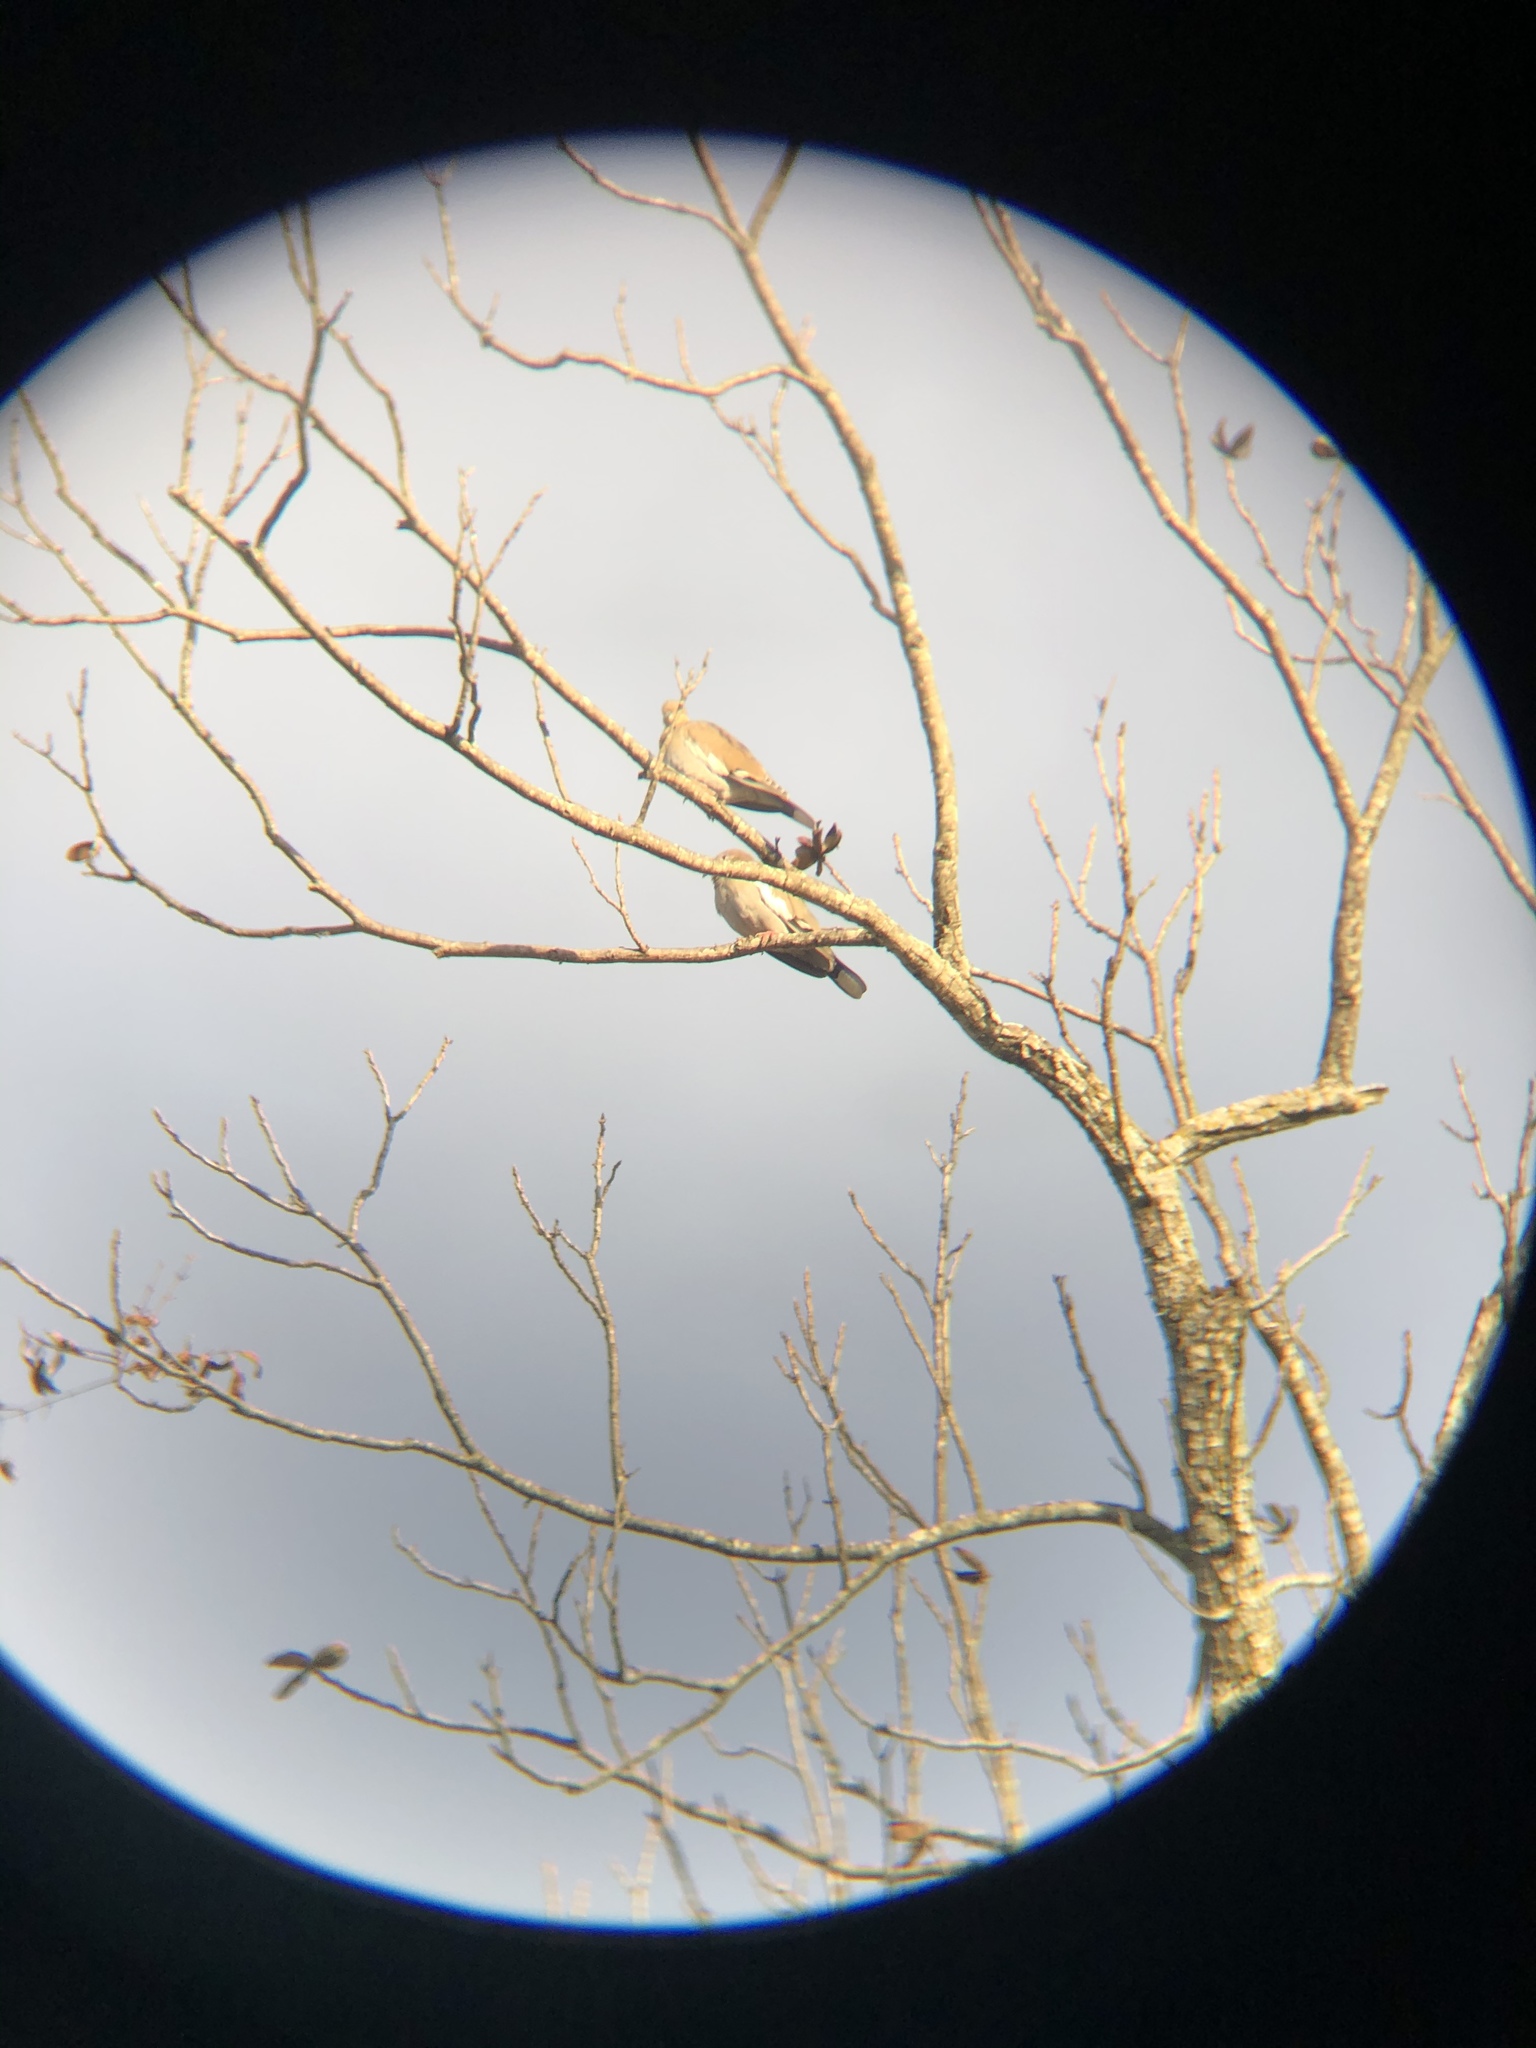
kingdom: Animalia
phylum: Chordata
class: Aves
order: Columbiformes
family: Columbidae
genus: Zenaida
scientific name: Zenaida asiatica
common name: White-winged dove
